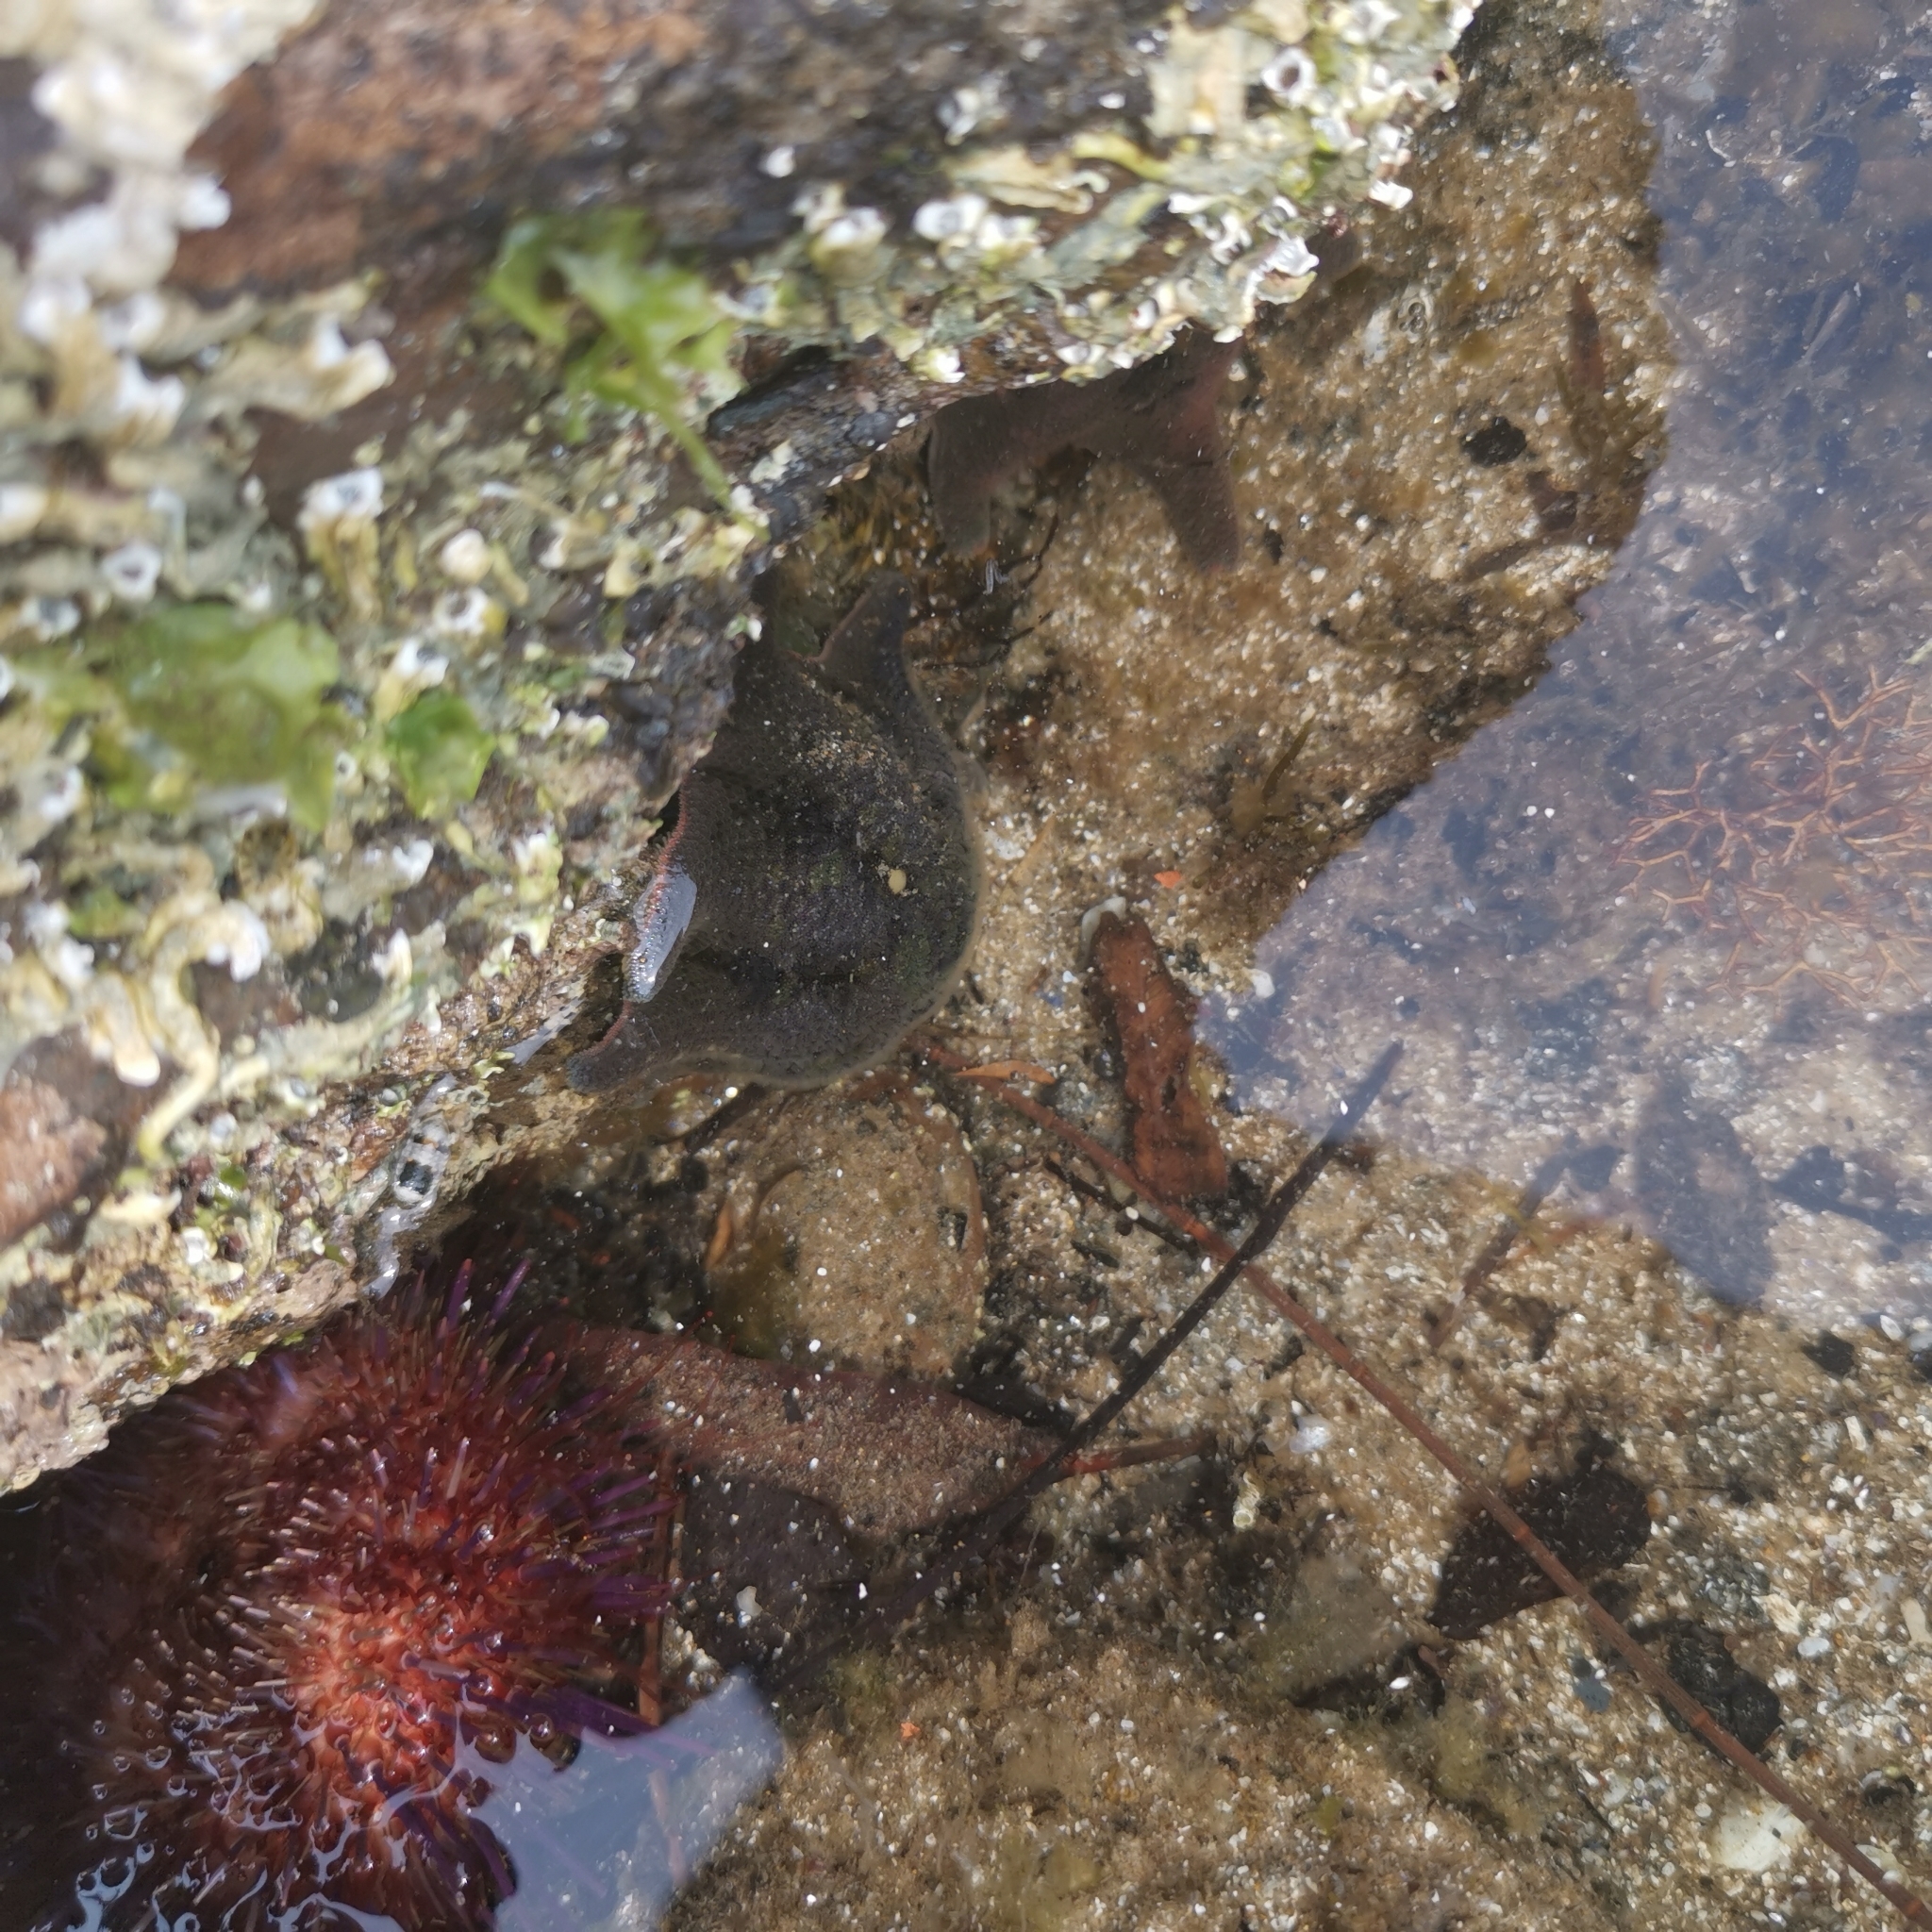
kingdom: Animalia
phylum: Echinodermata
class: Echinoidea
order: Camarodonta
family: Echinometridae
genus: Heliocidaris
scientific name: Heliocidaris erythrogramma
